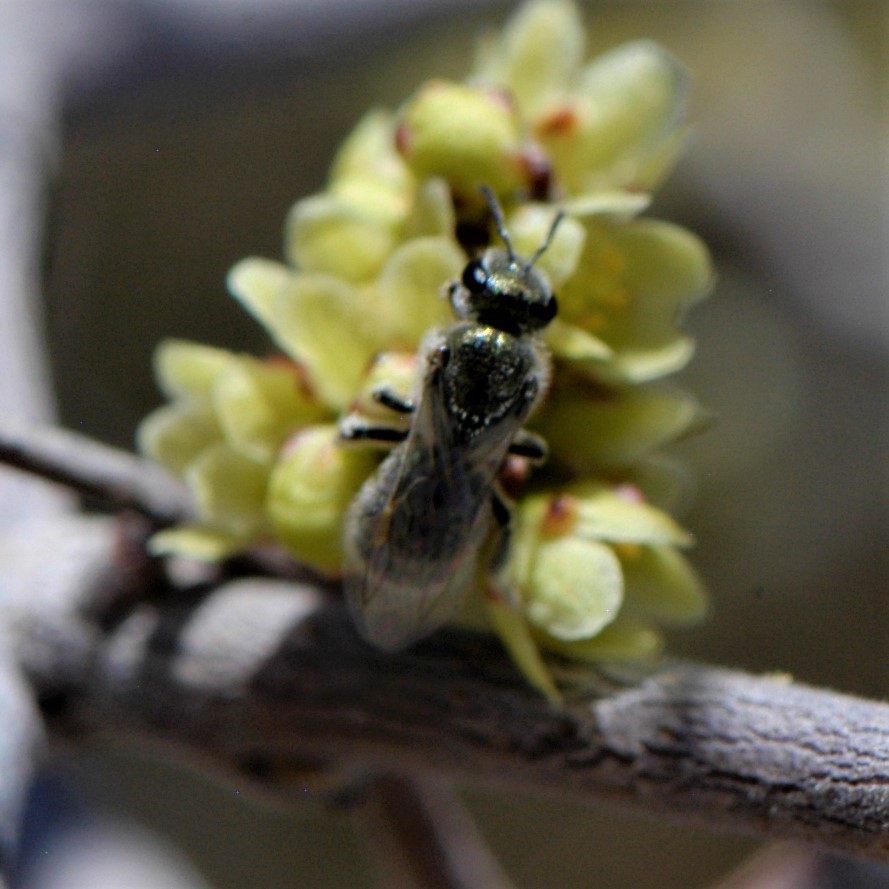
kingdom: Animalia
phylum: Arthropoda
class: Insecta
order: Hymenoptera
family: Halictidae
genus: Dialictus
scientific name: Dialictus
